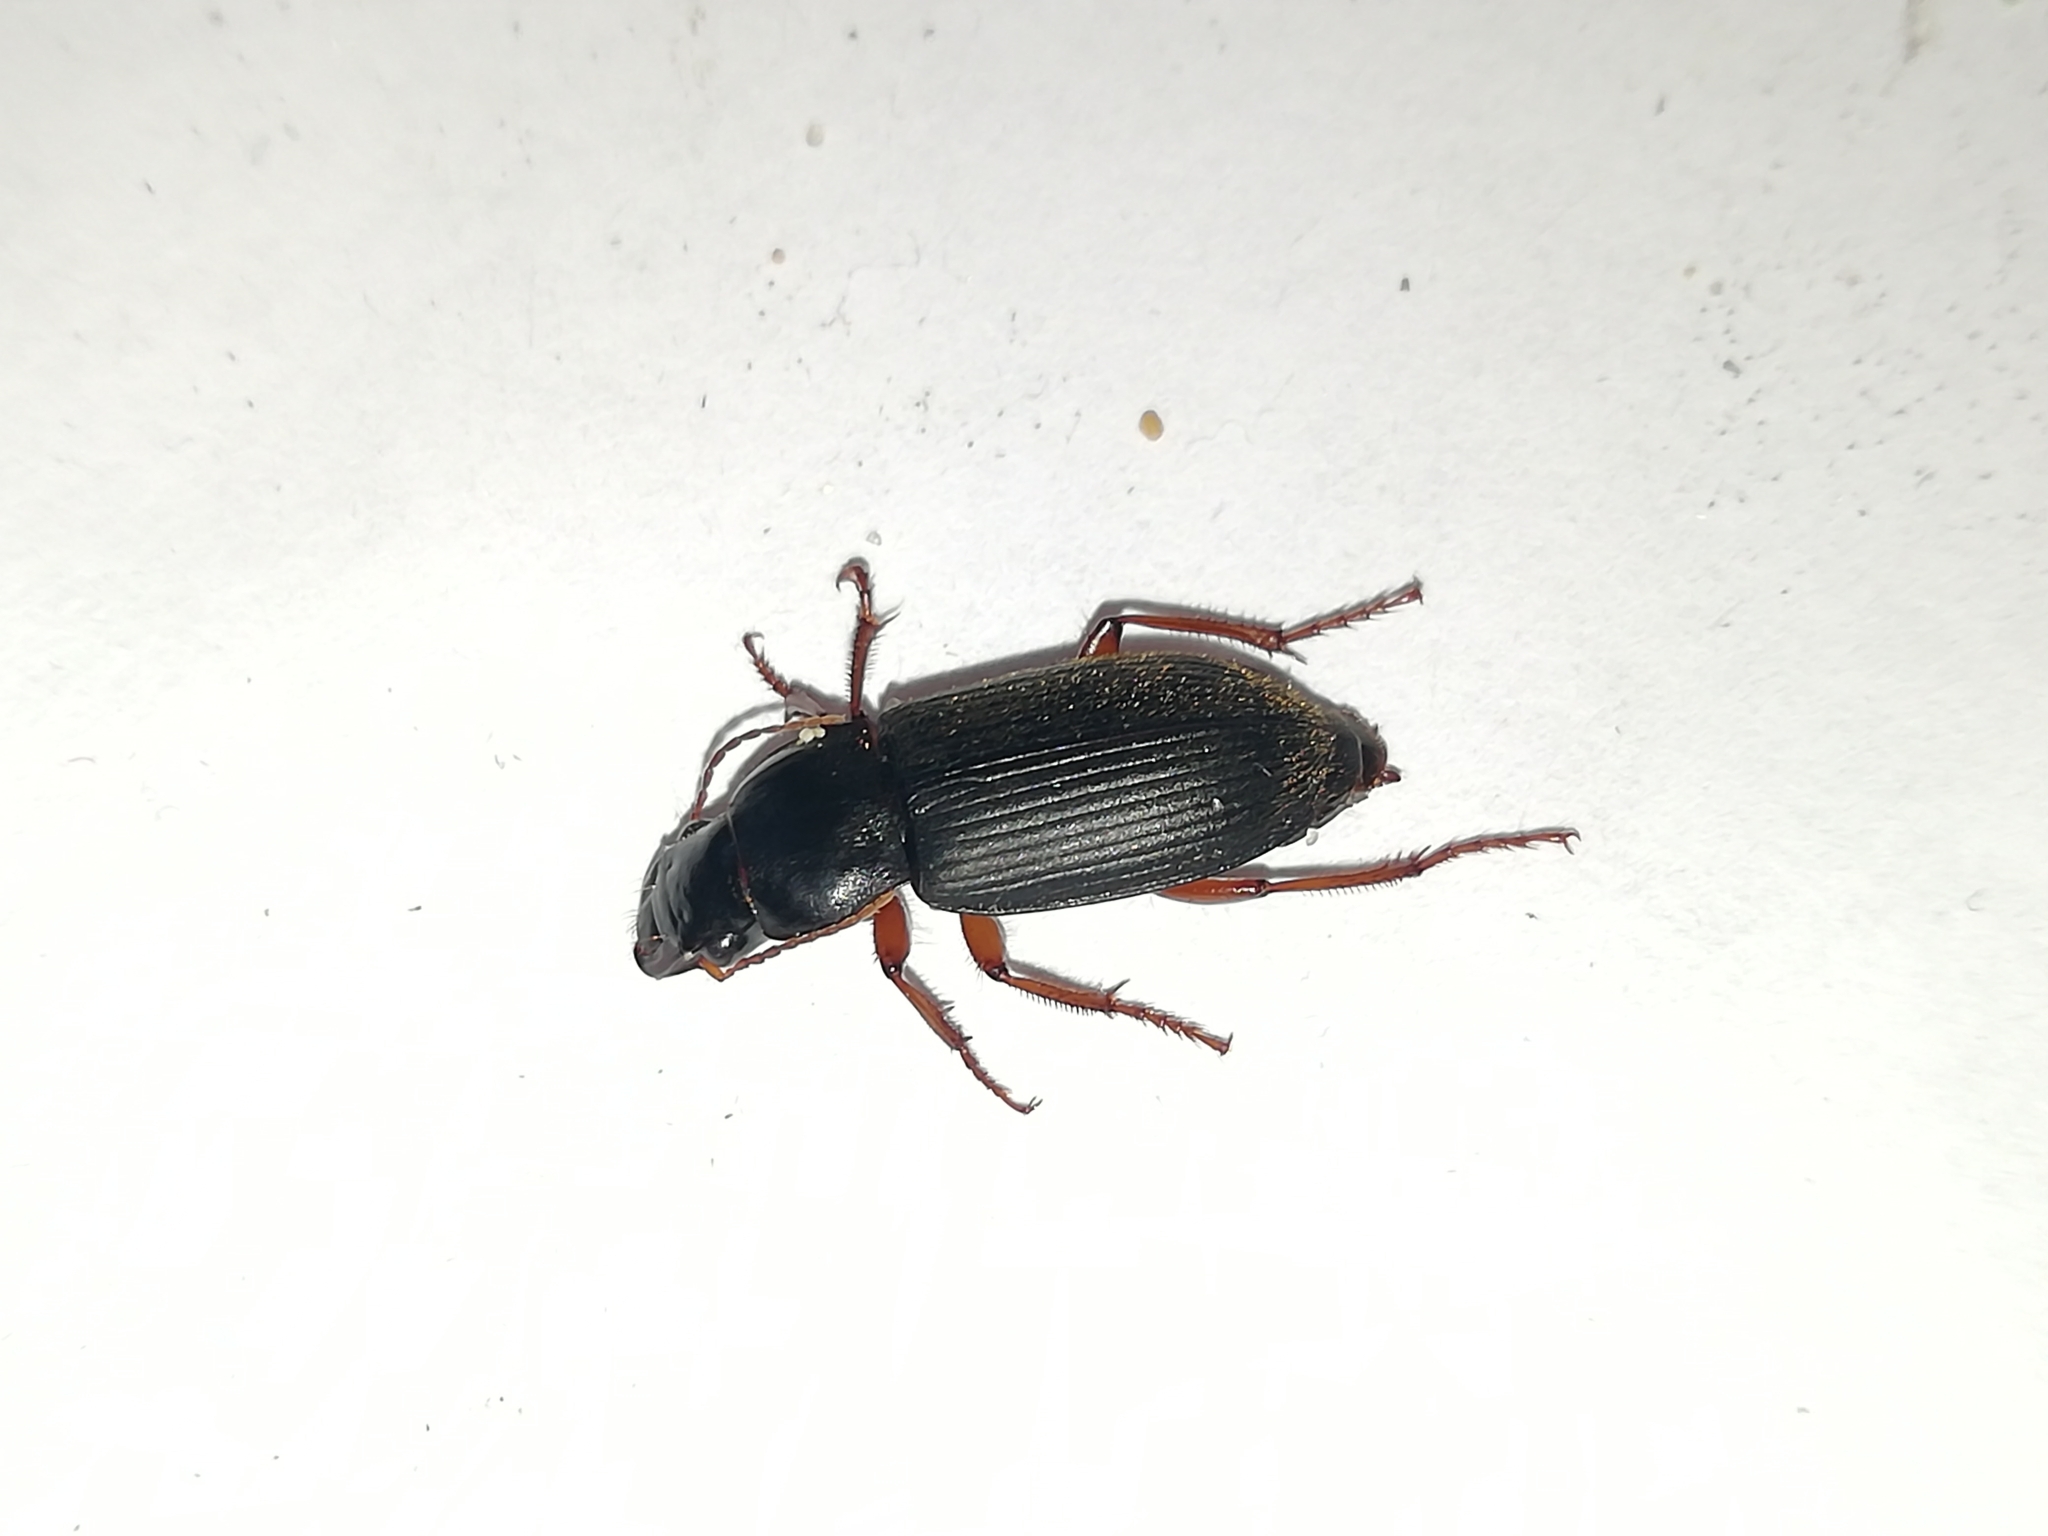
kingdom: Animalia
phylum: Arthropoda
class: Insecta
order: Coleoptera
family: Carabidae
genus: Harpalus
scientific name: Harpalus rufipes
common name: Strawberry harp ground beetle
